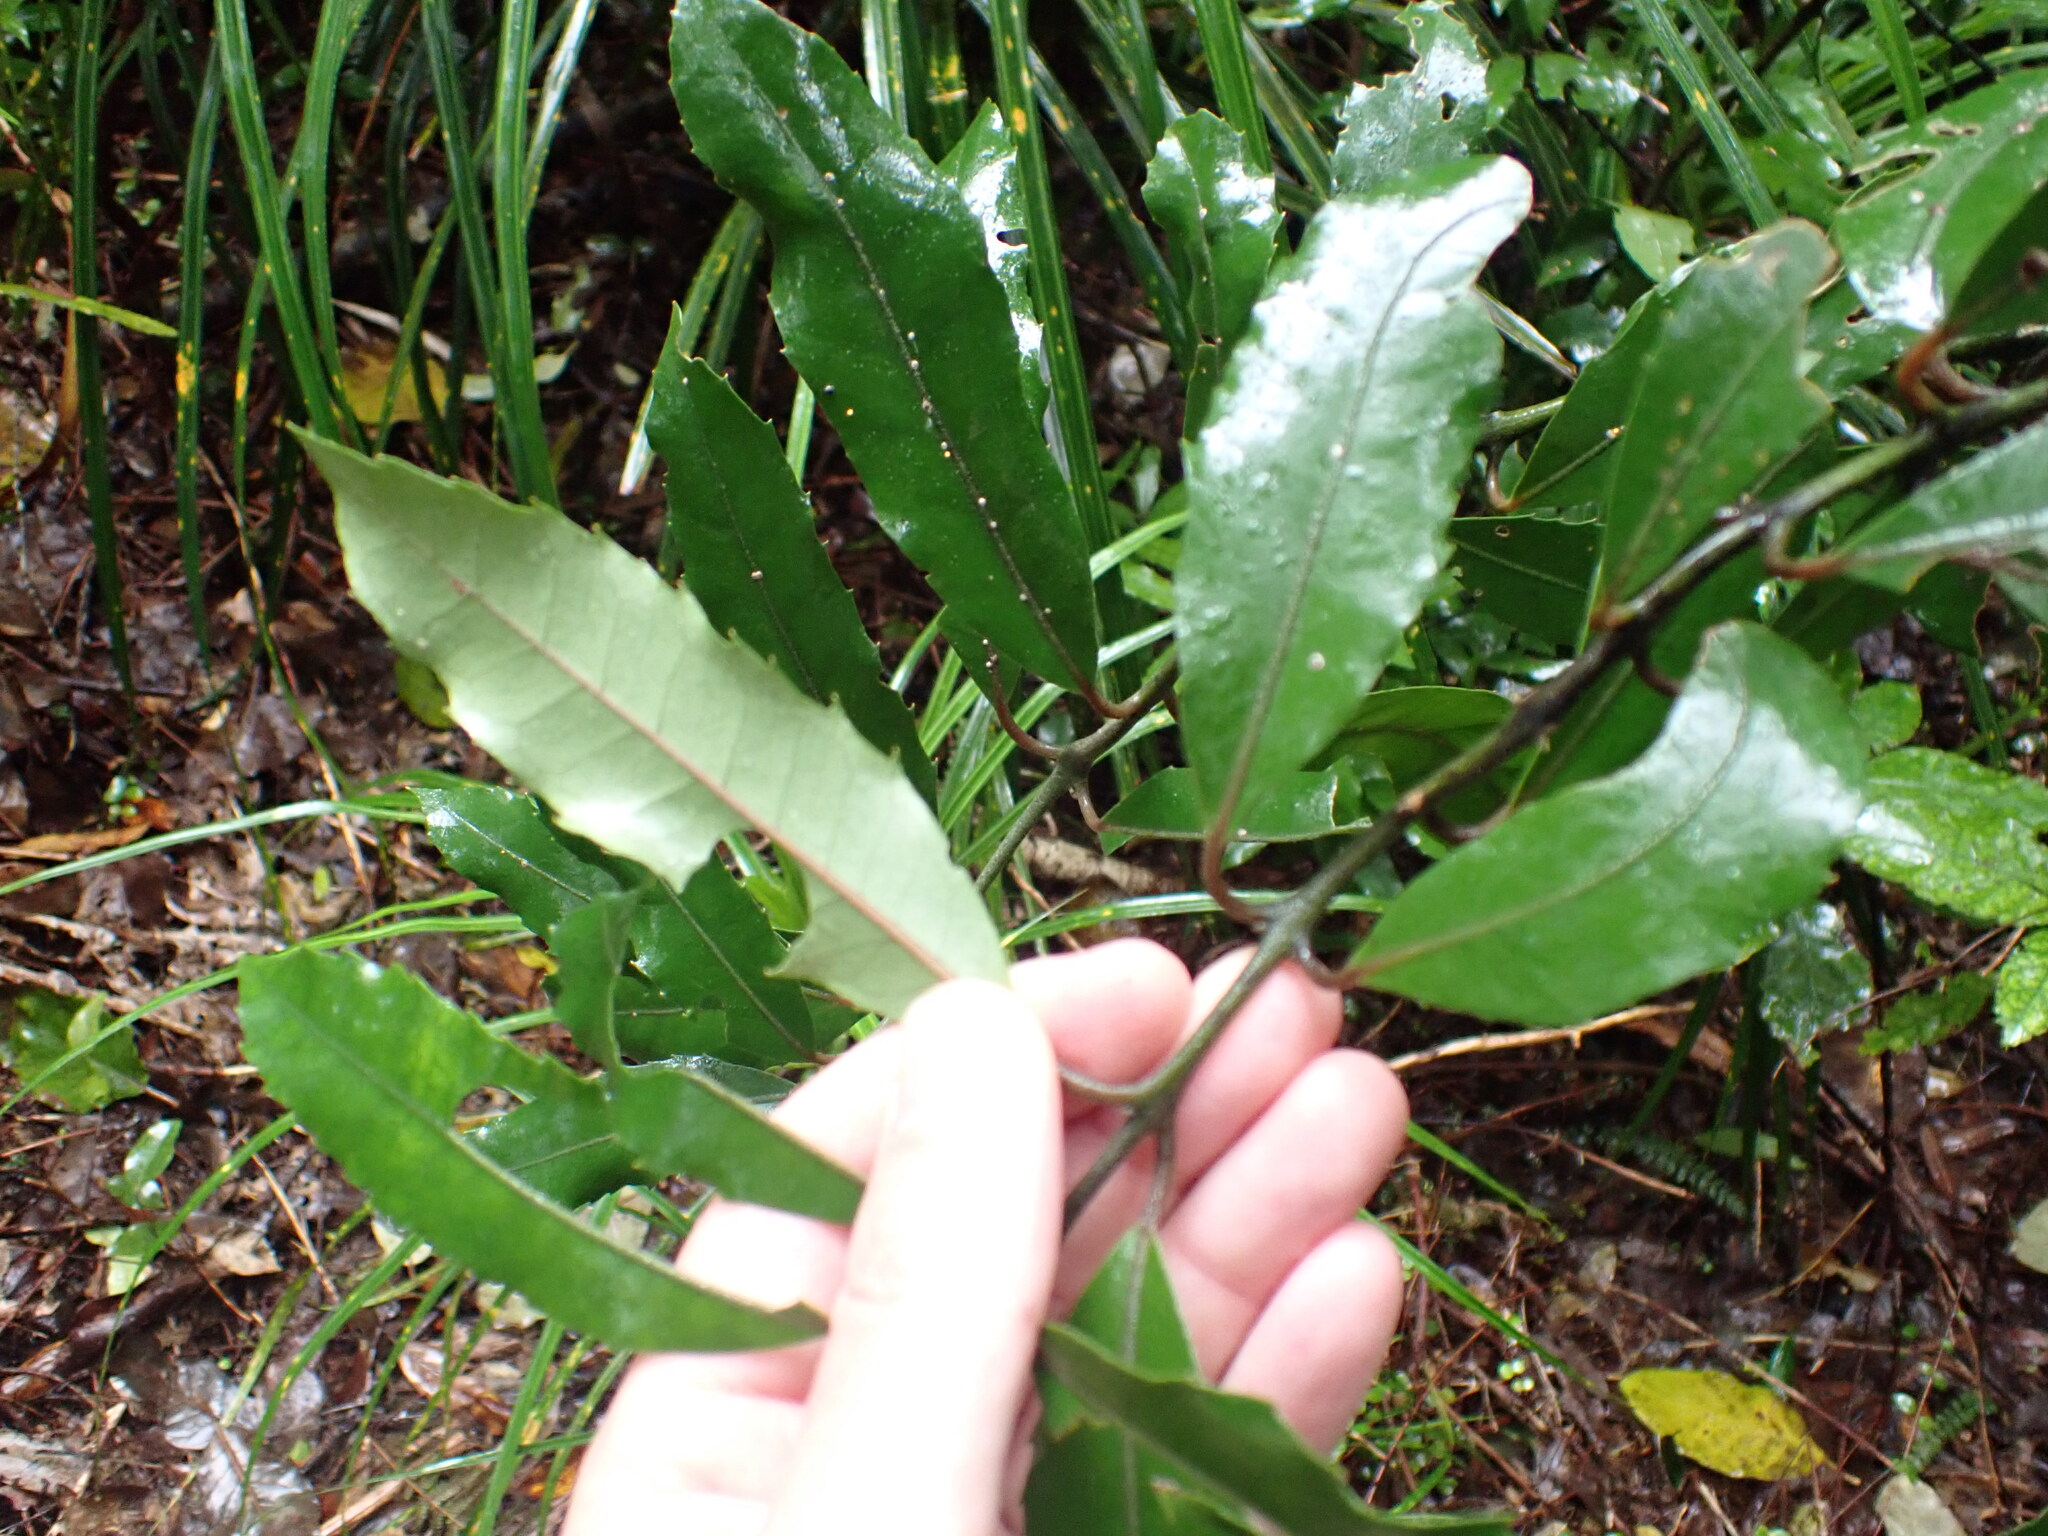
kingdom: Plantae
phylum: Tracheophyta
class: Magnoliopsida
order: Laurales
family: Monimiaceae
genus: Hedycarya
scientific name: Hedycarya arborea
